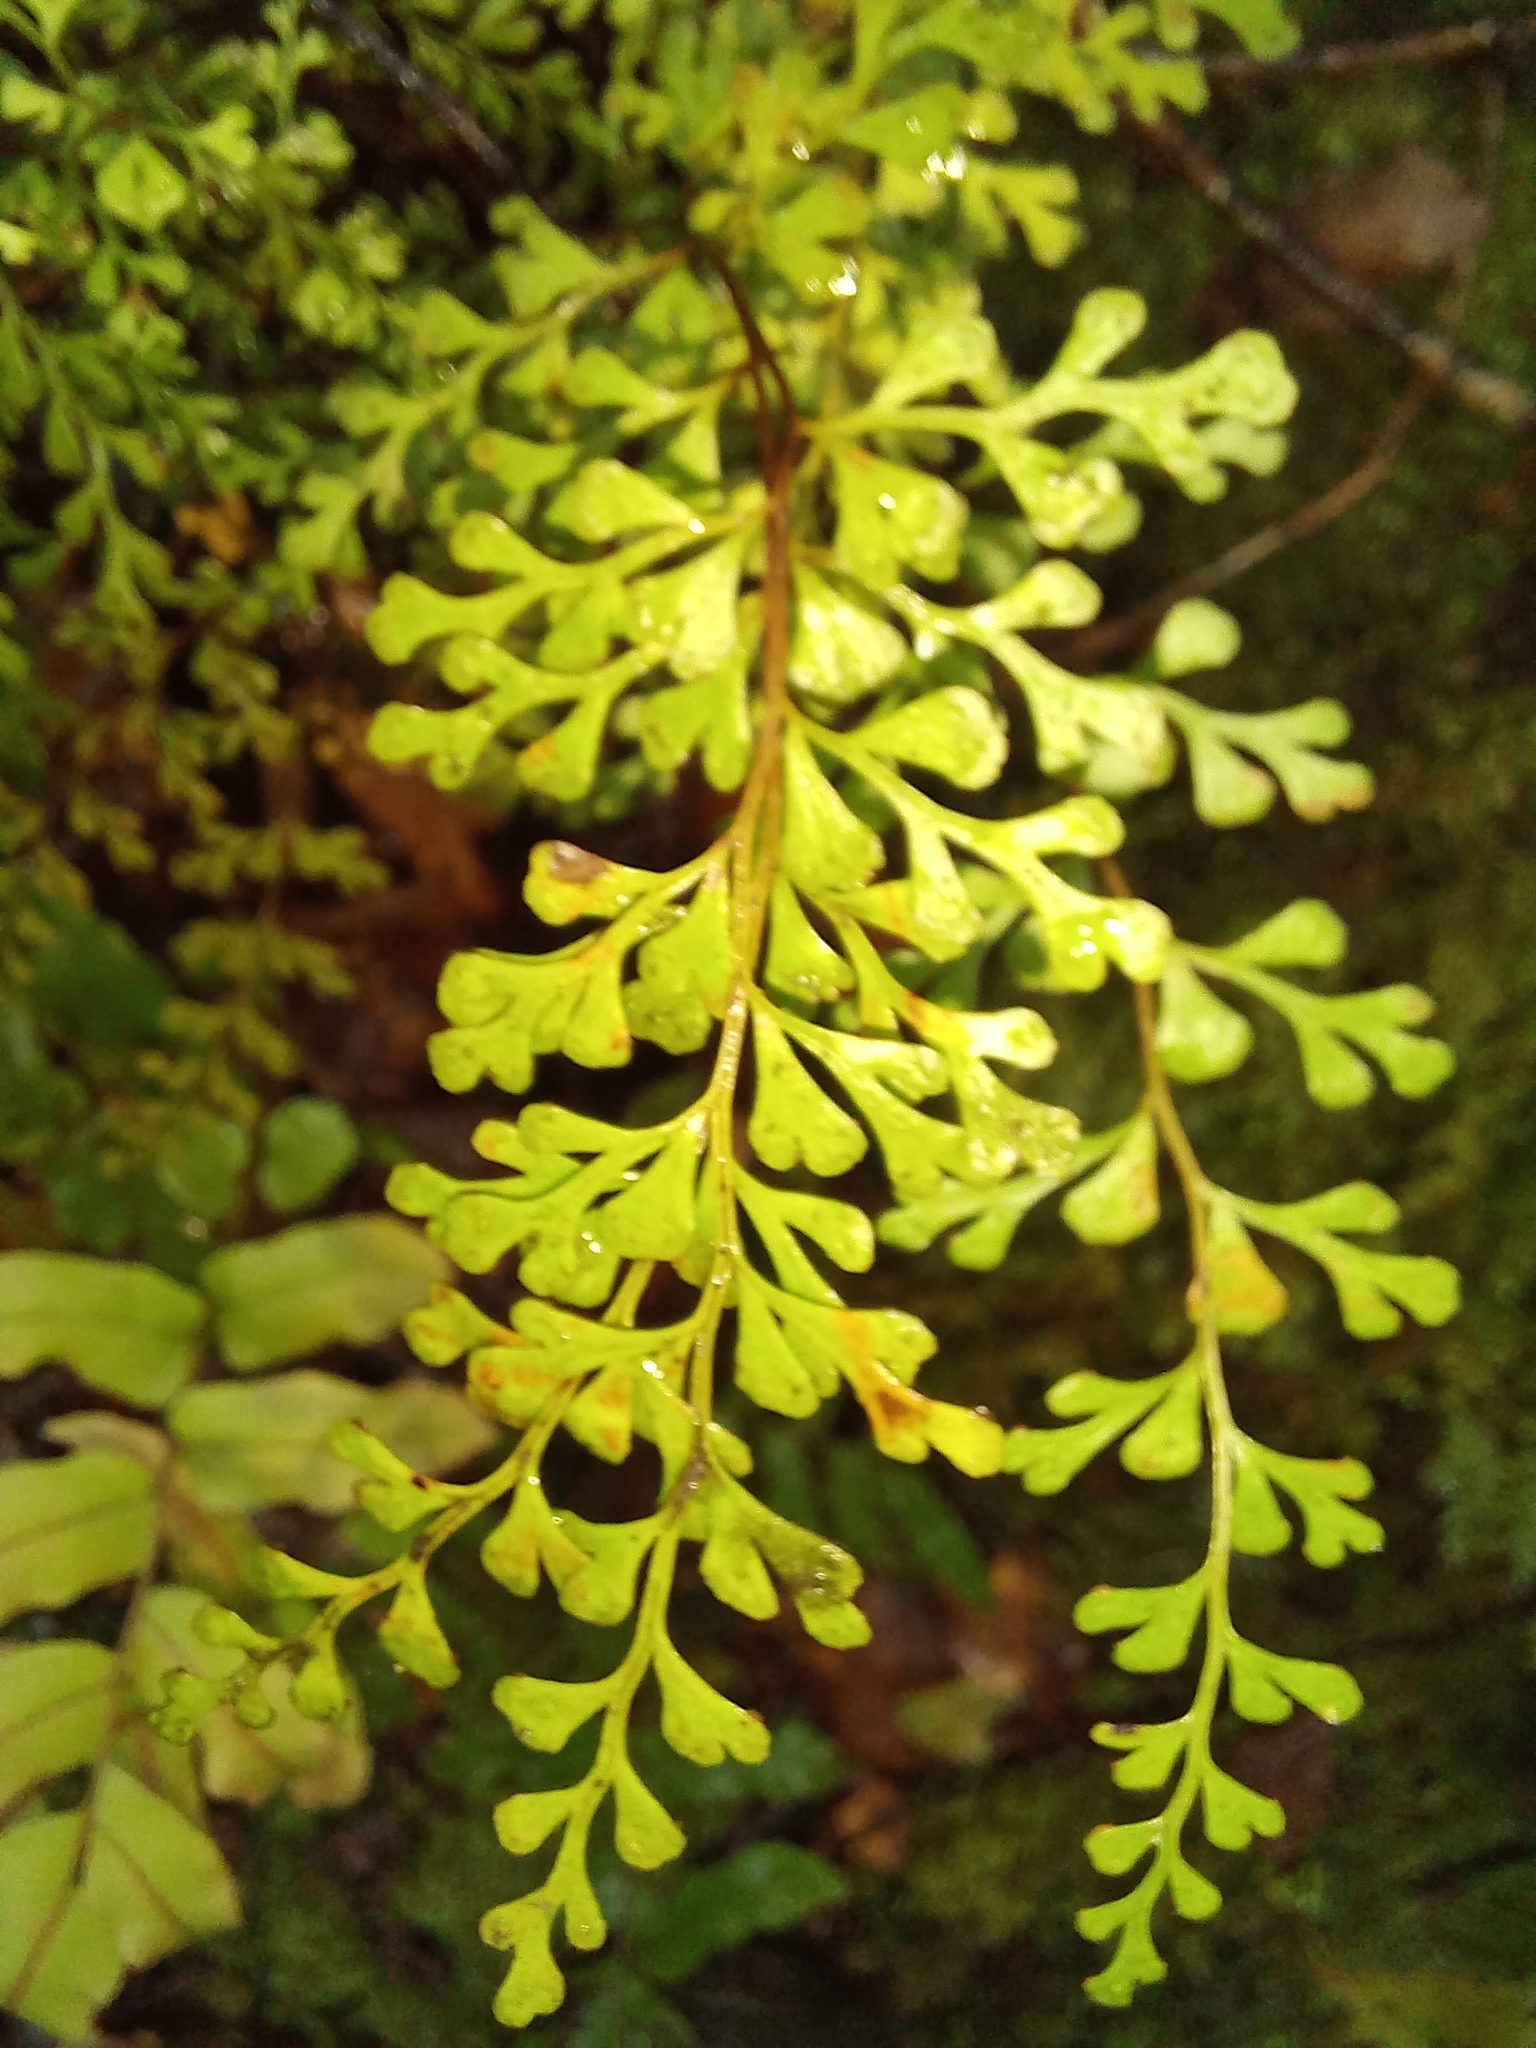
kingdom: Plantae
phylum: Tracheophyta
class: Polypodiopsida
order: Polypodiales
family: Lindsaeaceae
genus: Lindsaea
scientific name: Lindsaea trichomanoides
